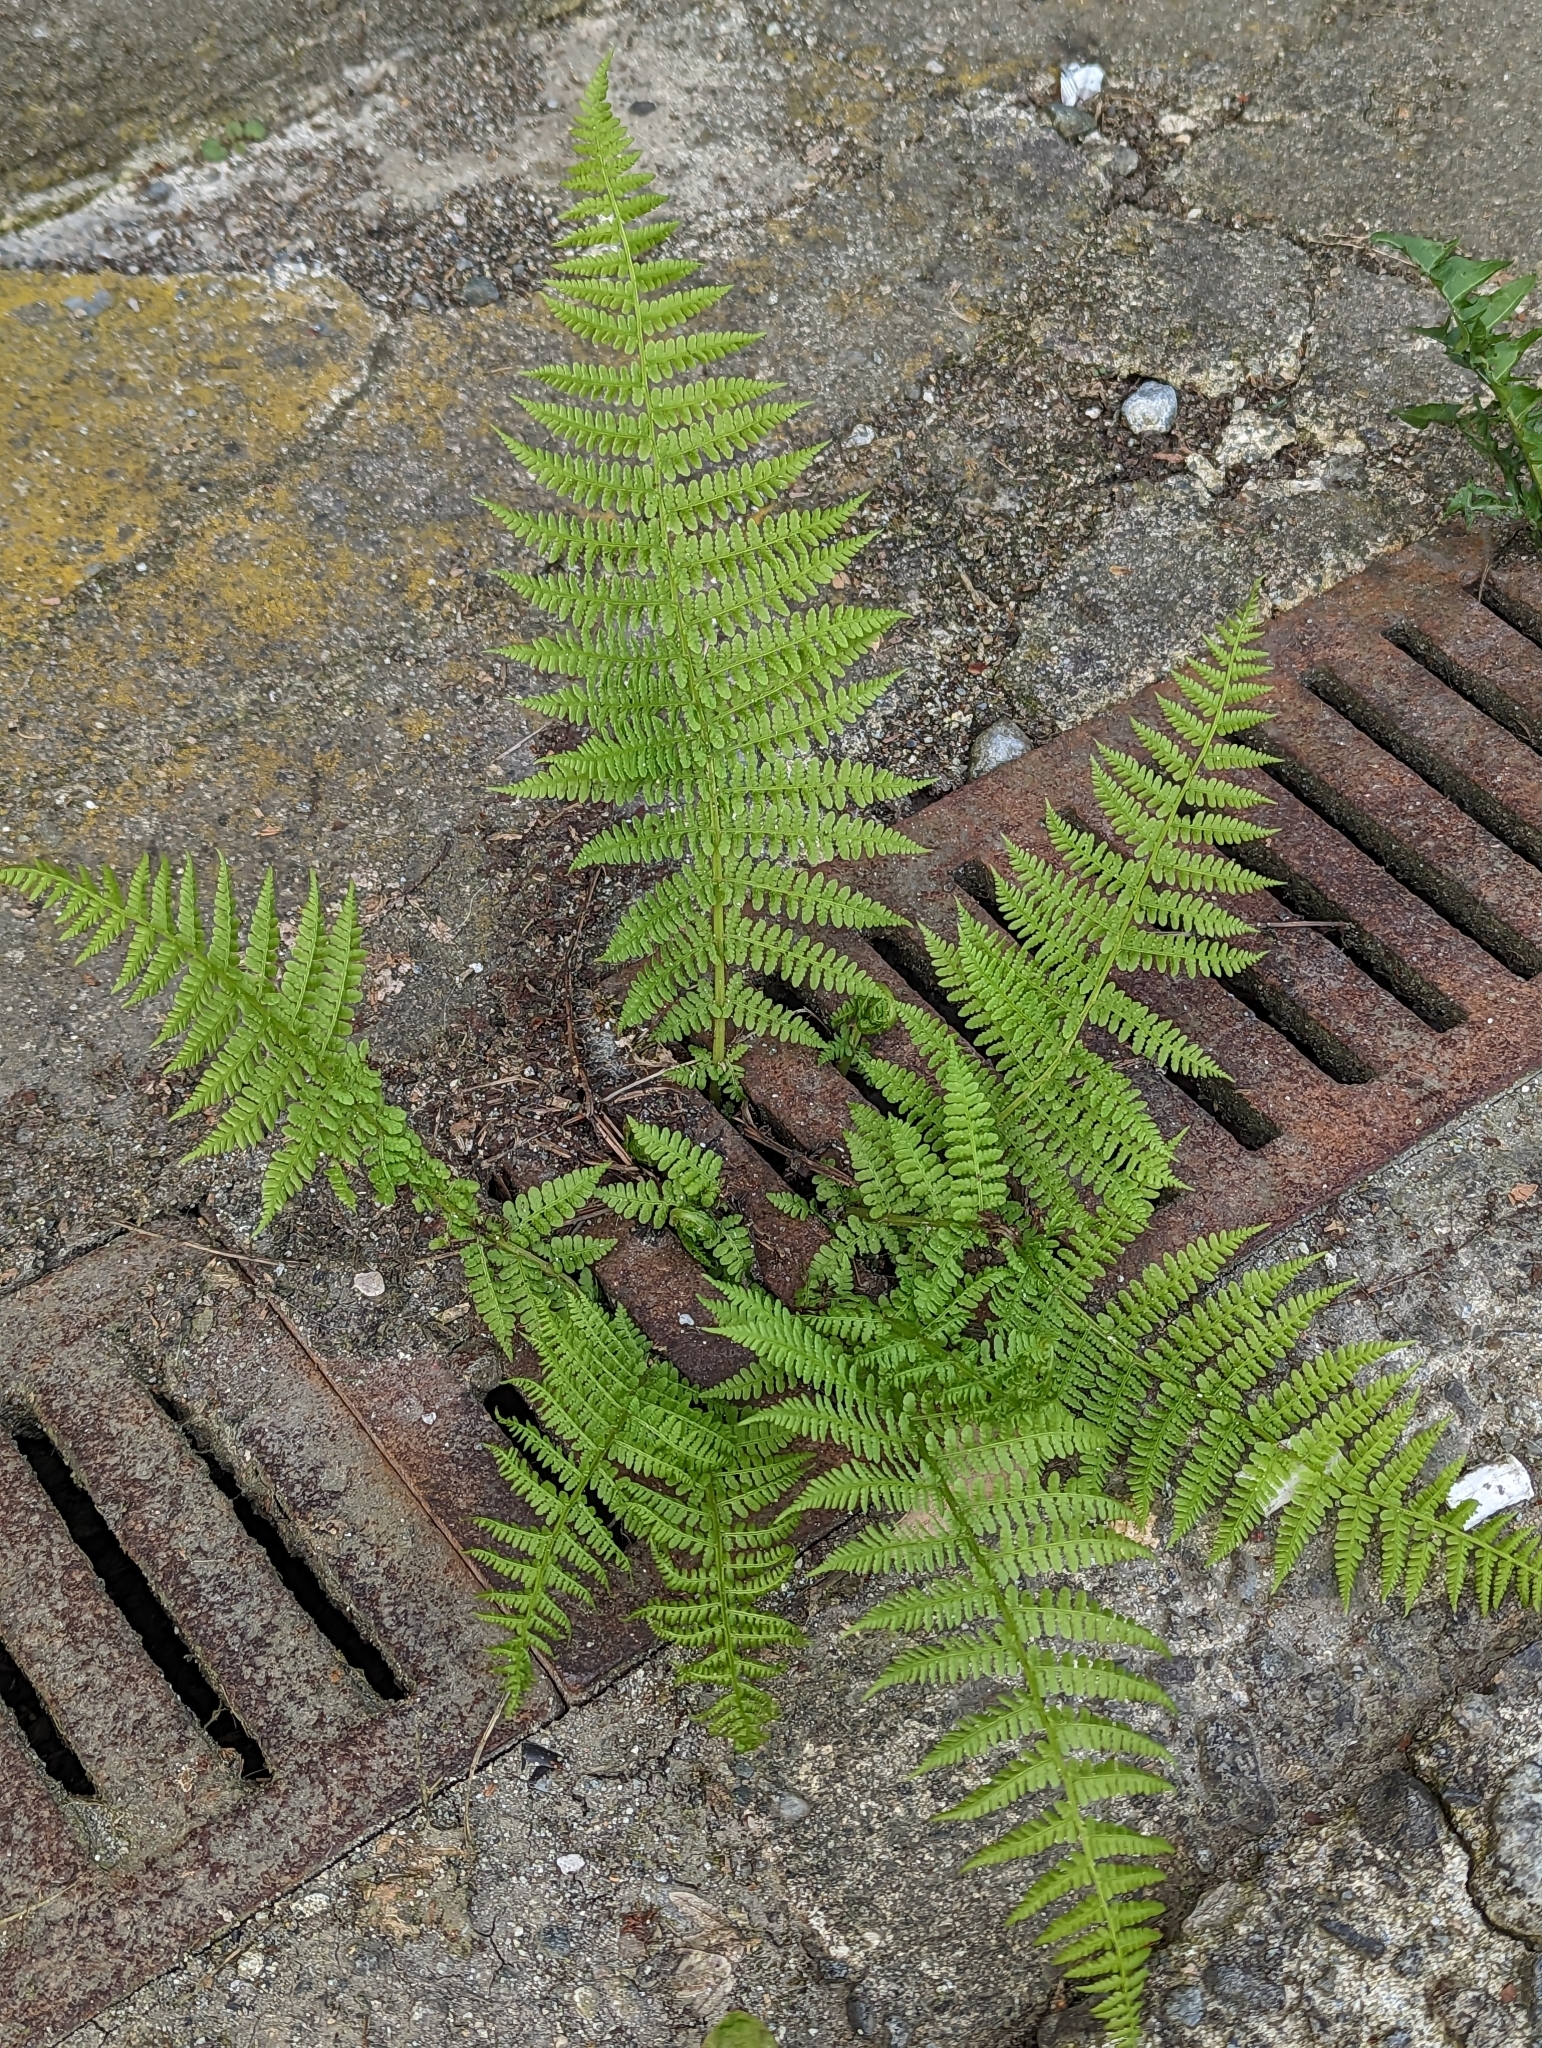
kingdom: Plantae
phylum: Tracheophyta
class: Polypodiopsida
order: Polypodiales
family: Athyriaceae
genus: Athyrium
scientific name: Athyrium filix-femina
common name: Lady fern
